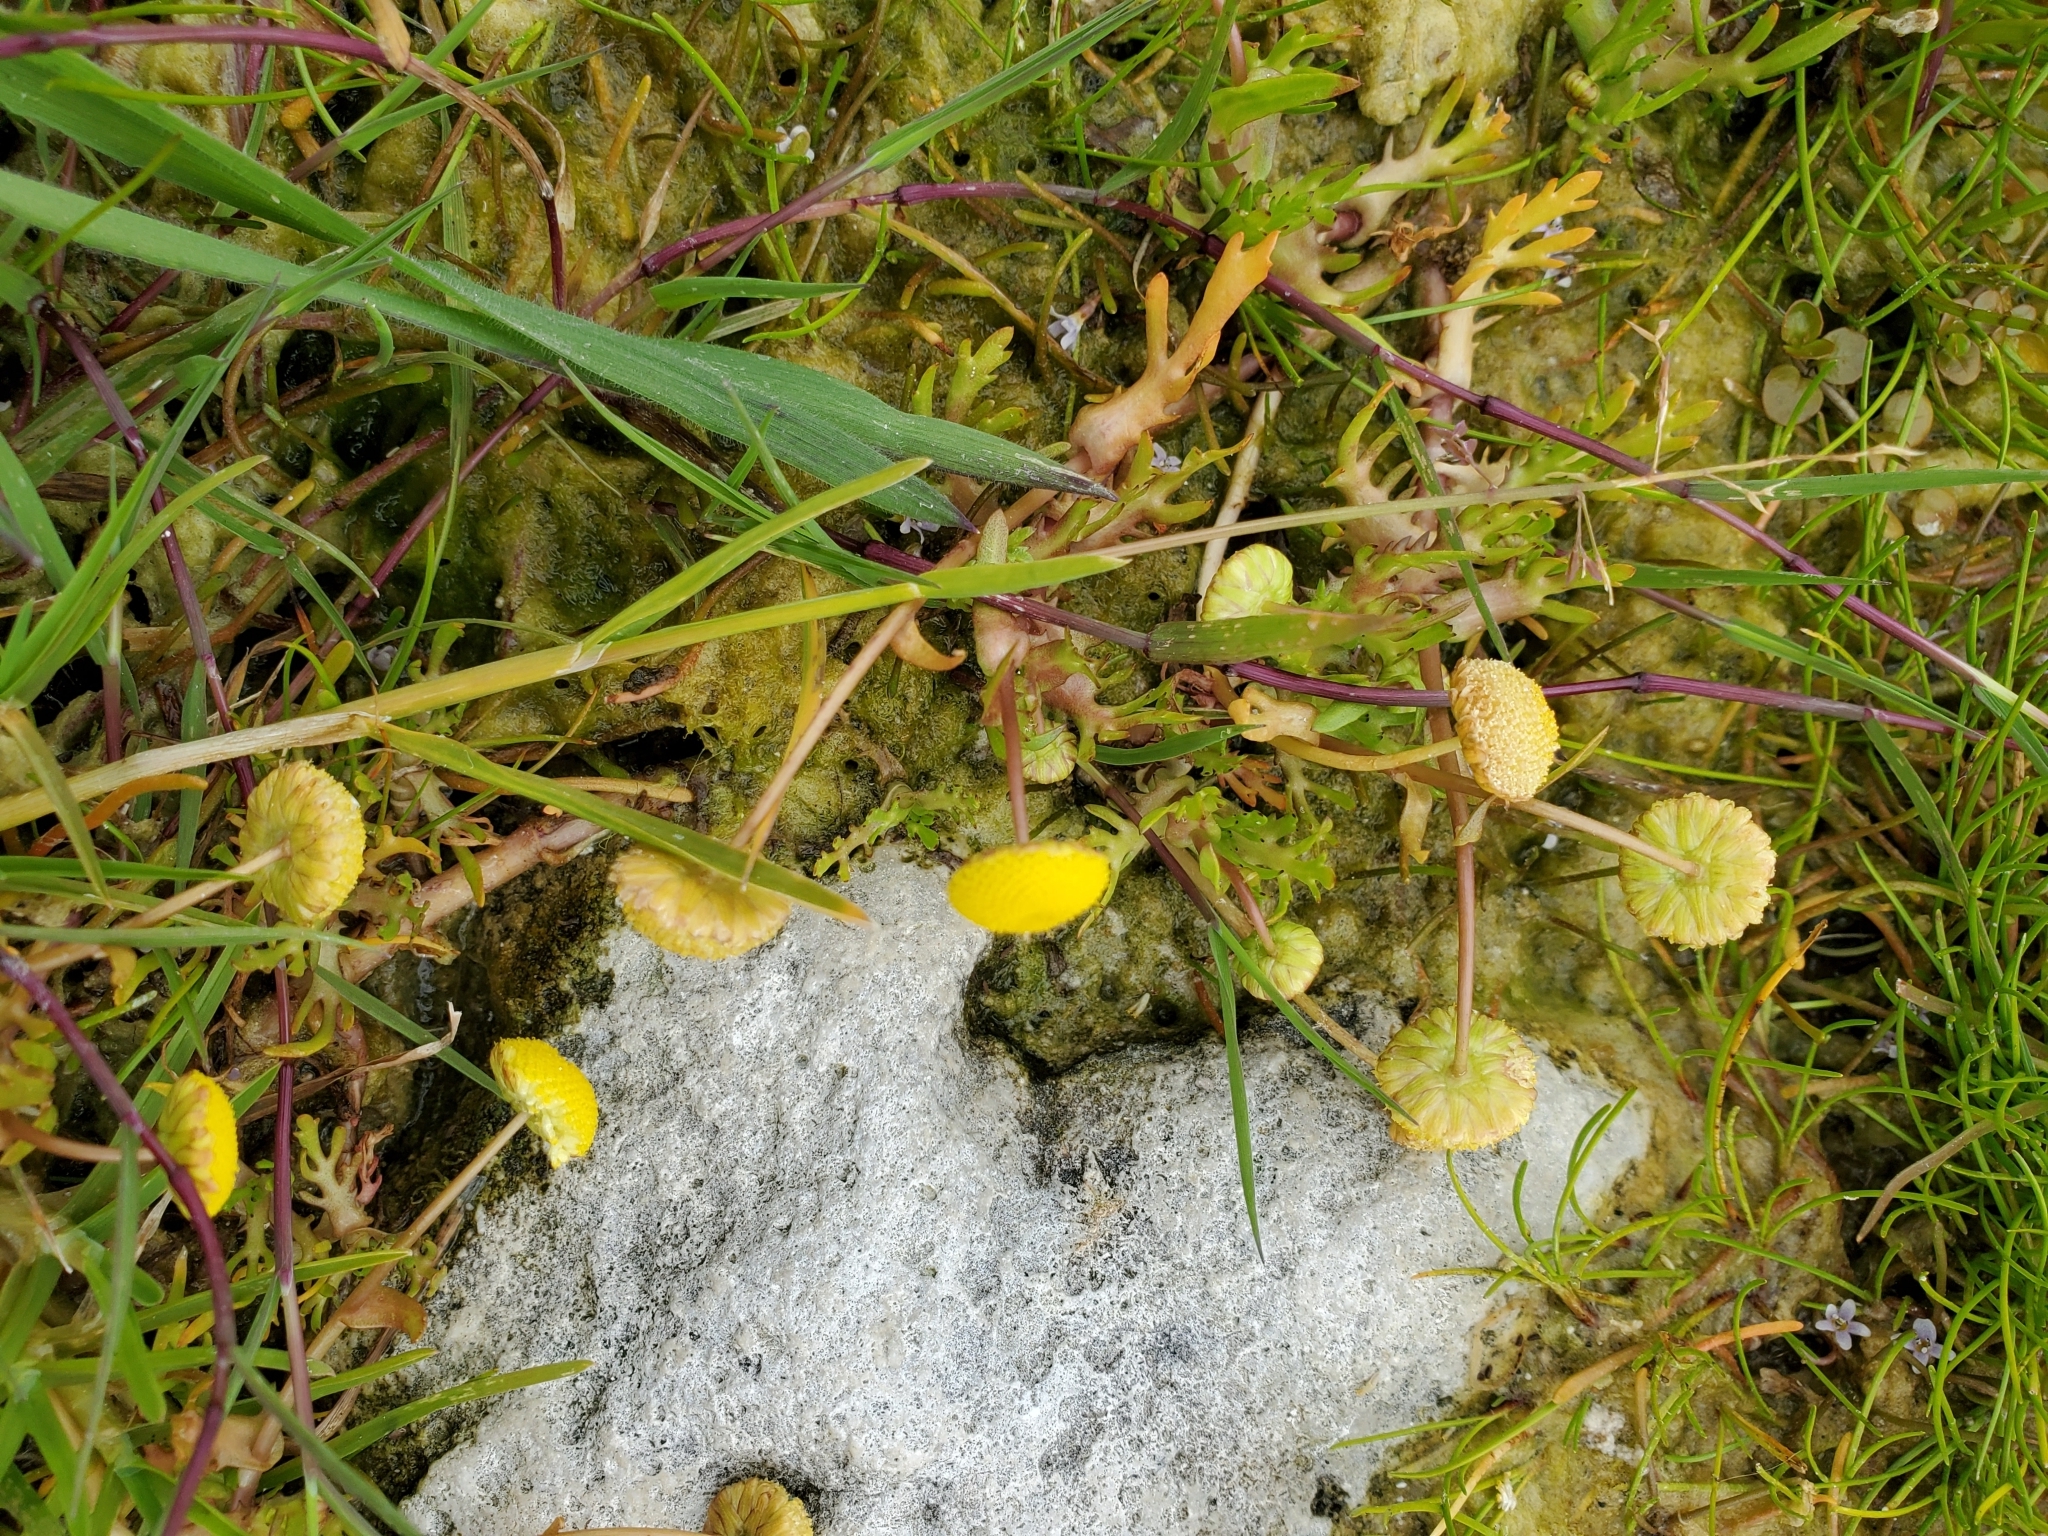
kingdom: Plantae
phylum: Tracheophyta
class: Magnoliopsida
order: Asterales
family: Asteraceae
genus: Cotula
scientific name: Cotula coronopifolia
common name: Buttonweed
